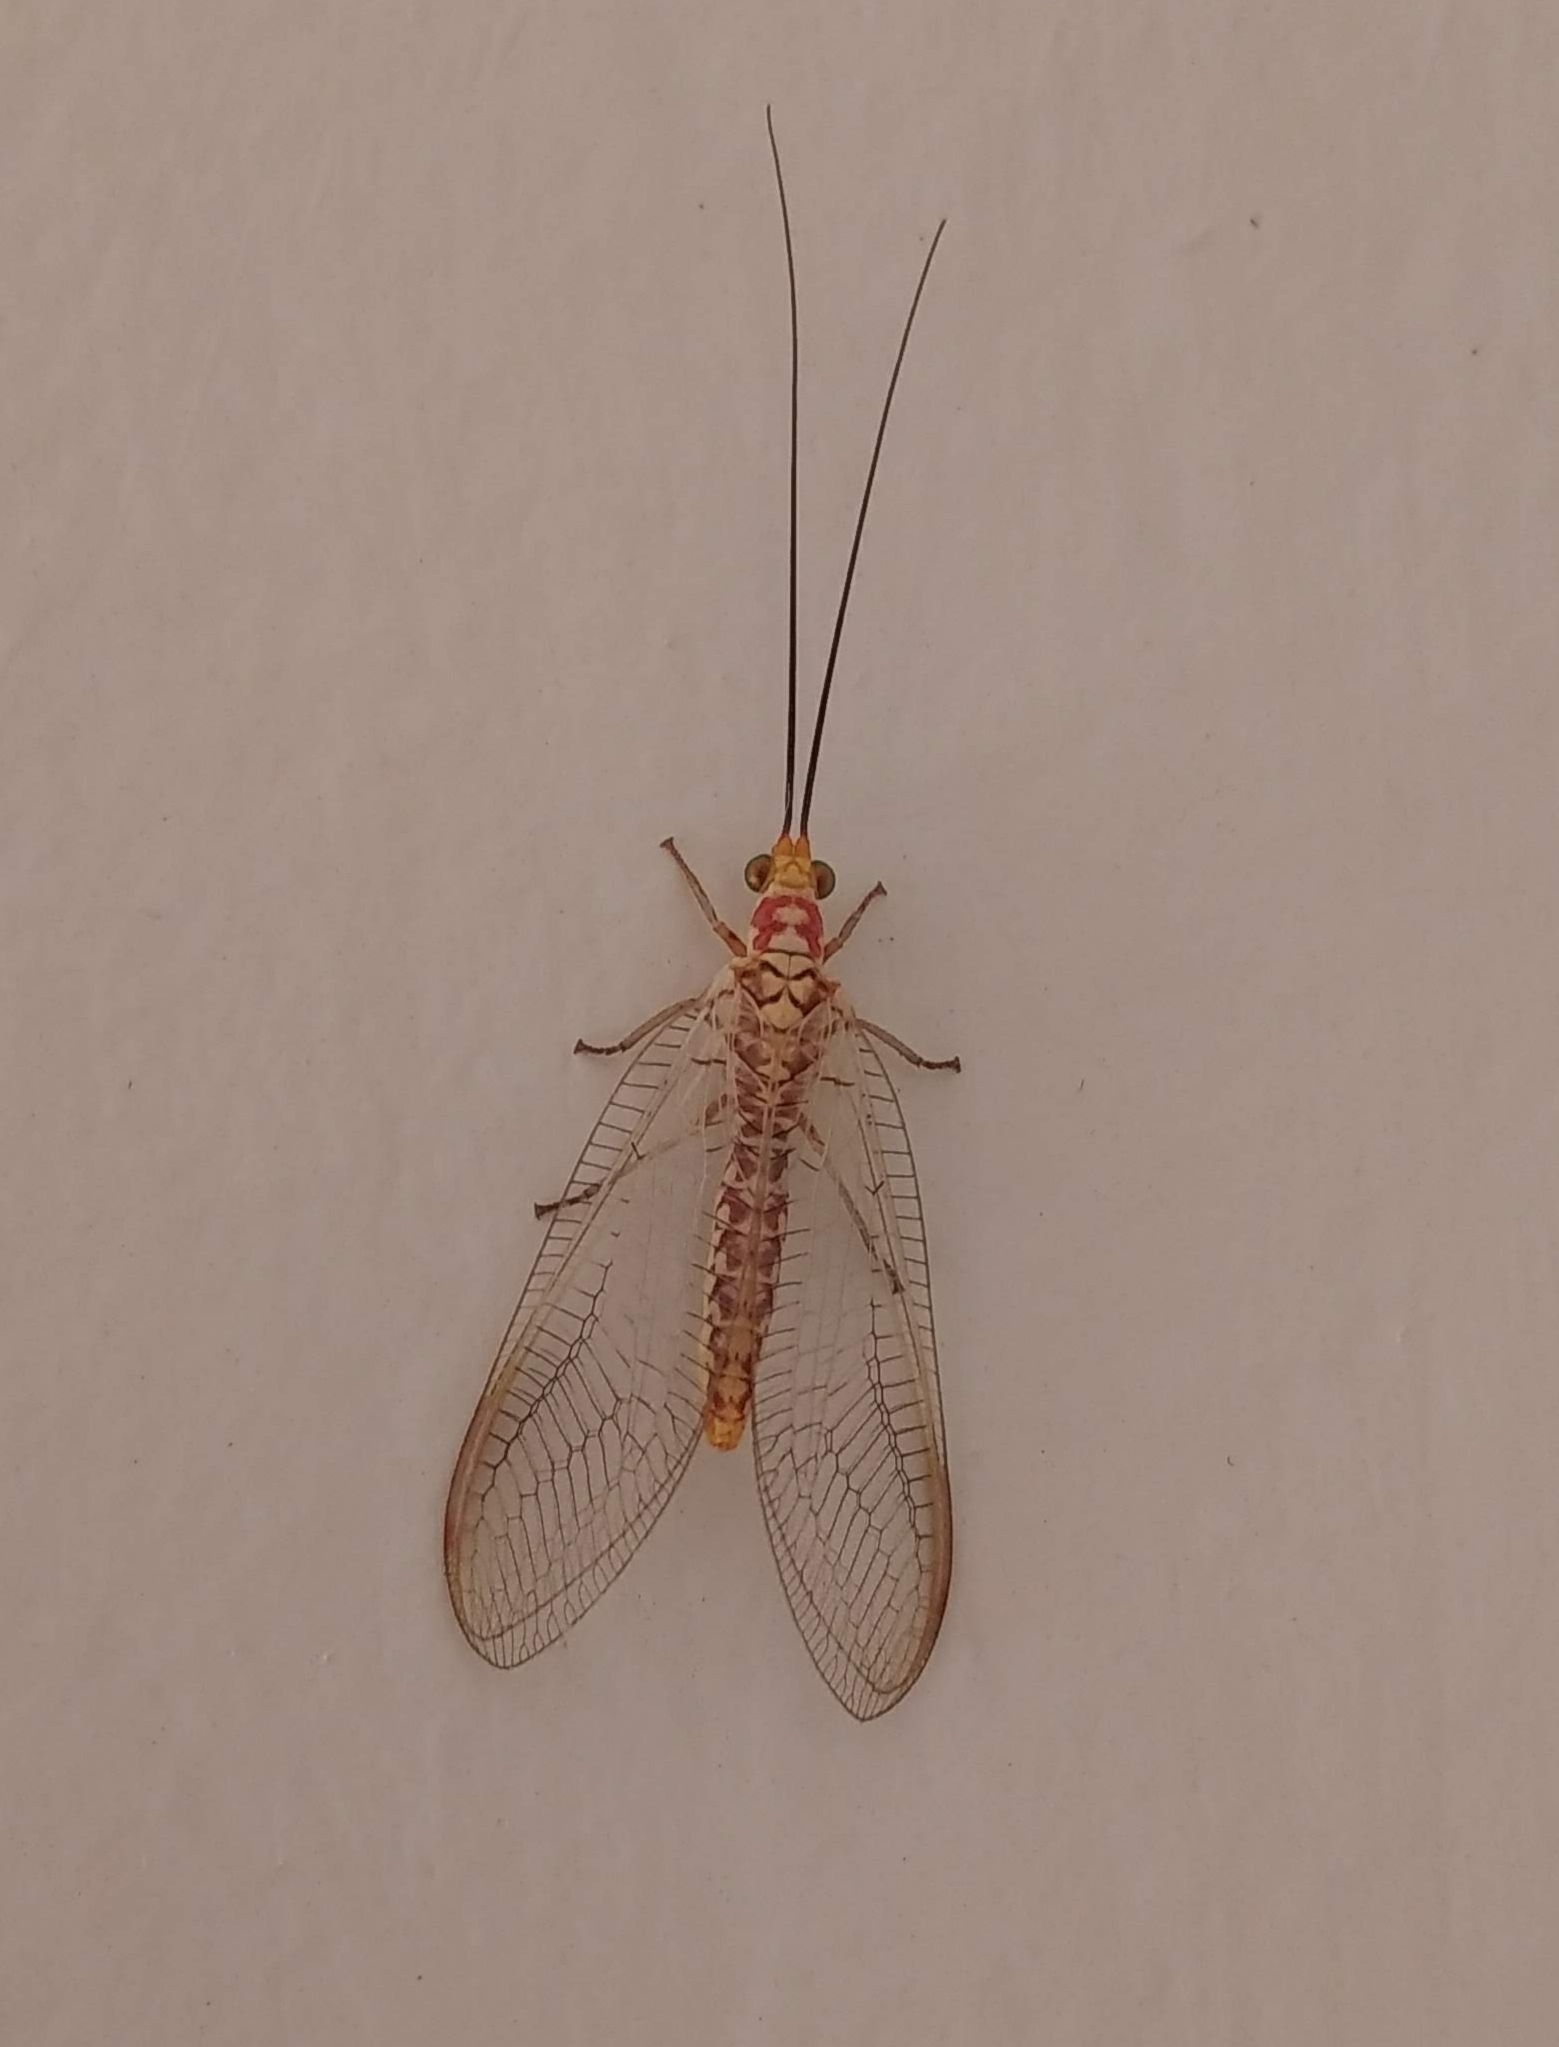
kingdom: Animalia
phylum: Arthropoda
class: Insecta
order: Neuroptera
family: Chrysopidae
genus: Italochrysa
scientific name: Italochrysa impar
